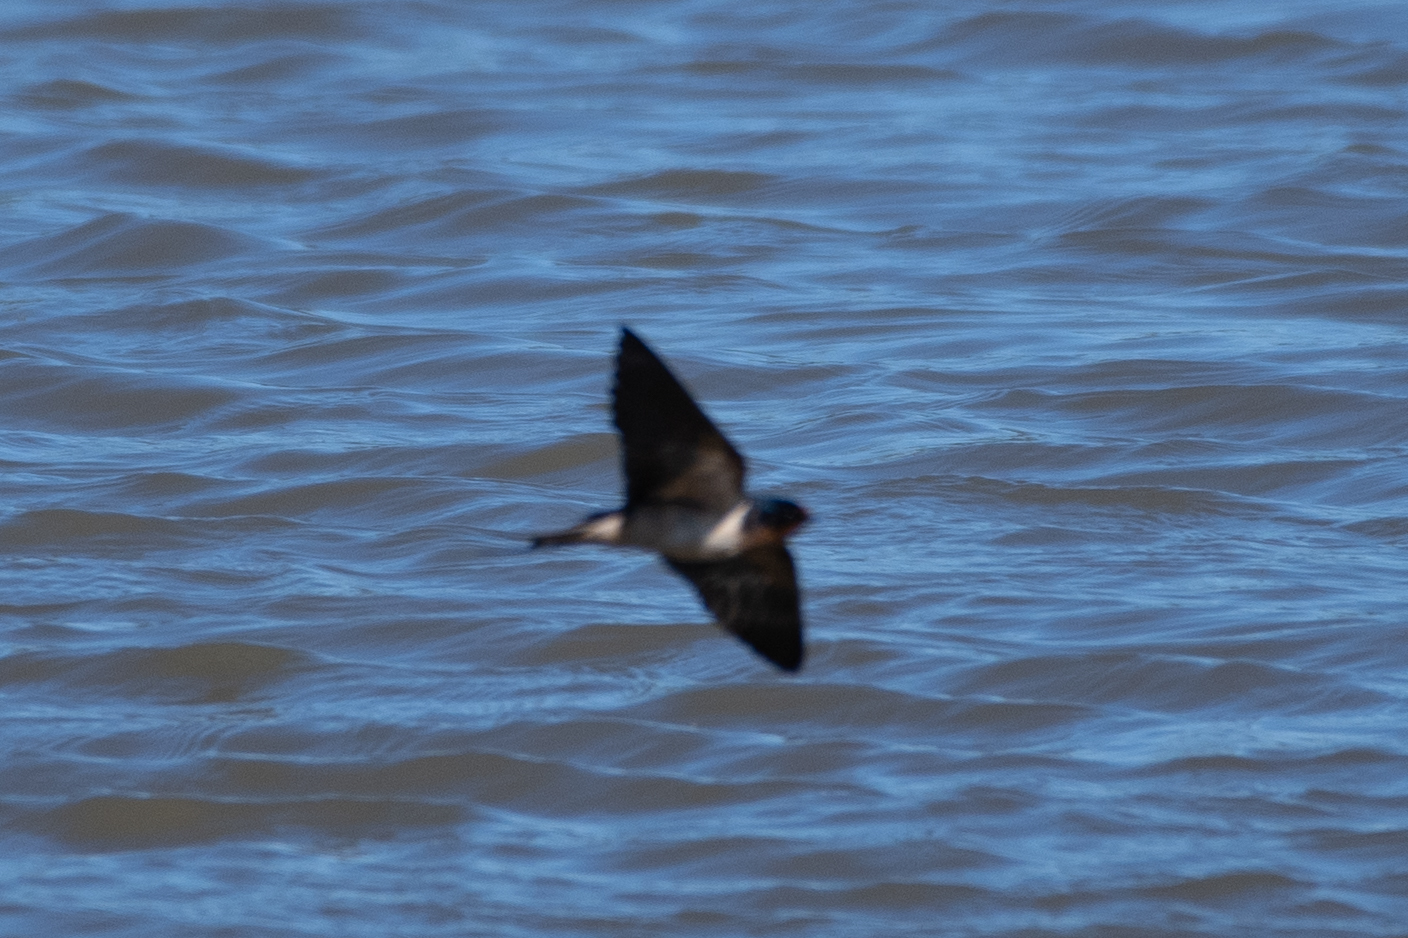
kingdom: Animalia
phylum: Chordata
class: Aves
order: Passeriformes
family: Hirundinidae
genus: Hirundo
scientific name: Hirundo rustica
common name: Barn swallow
